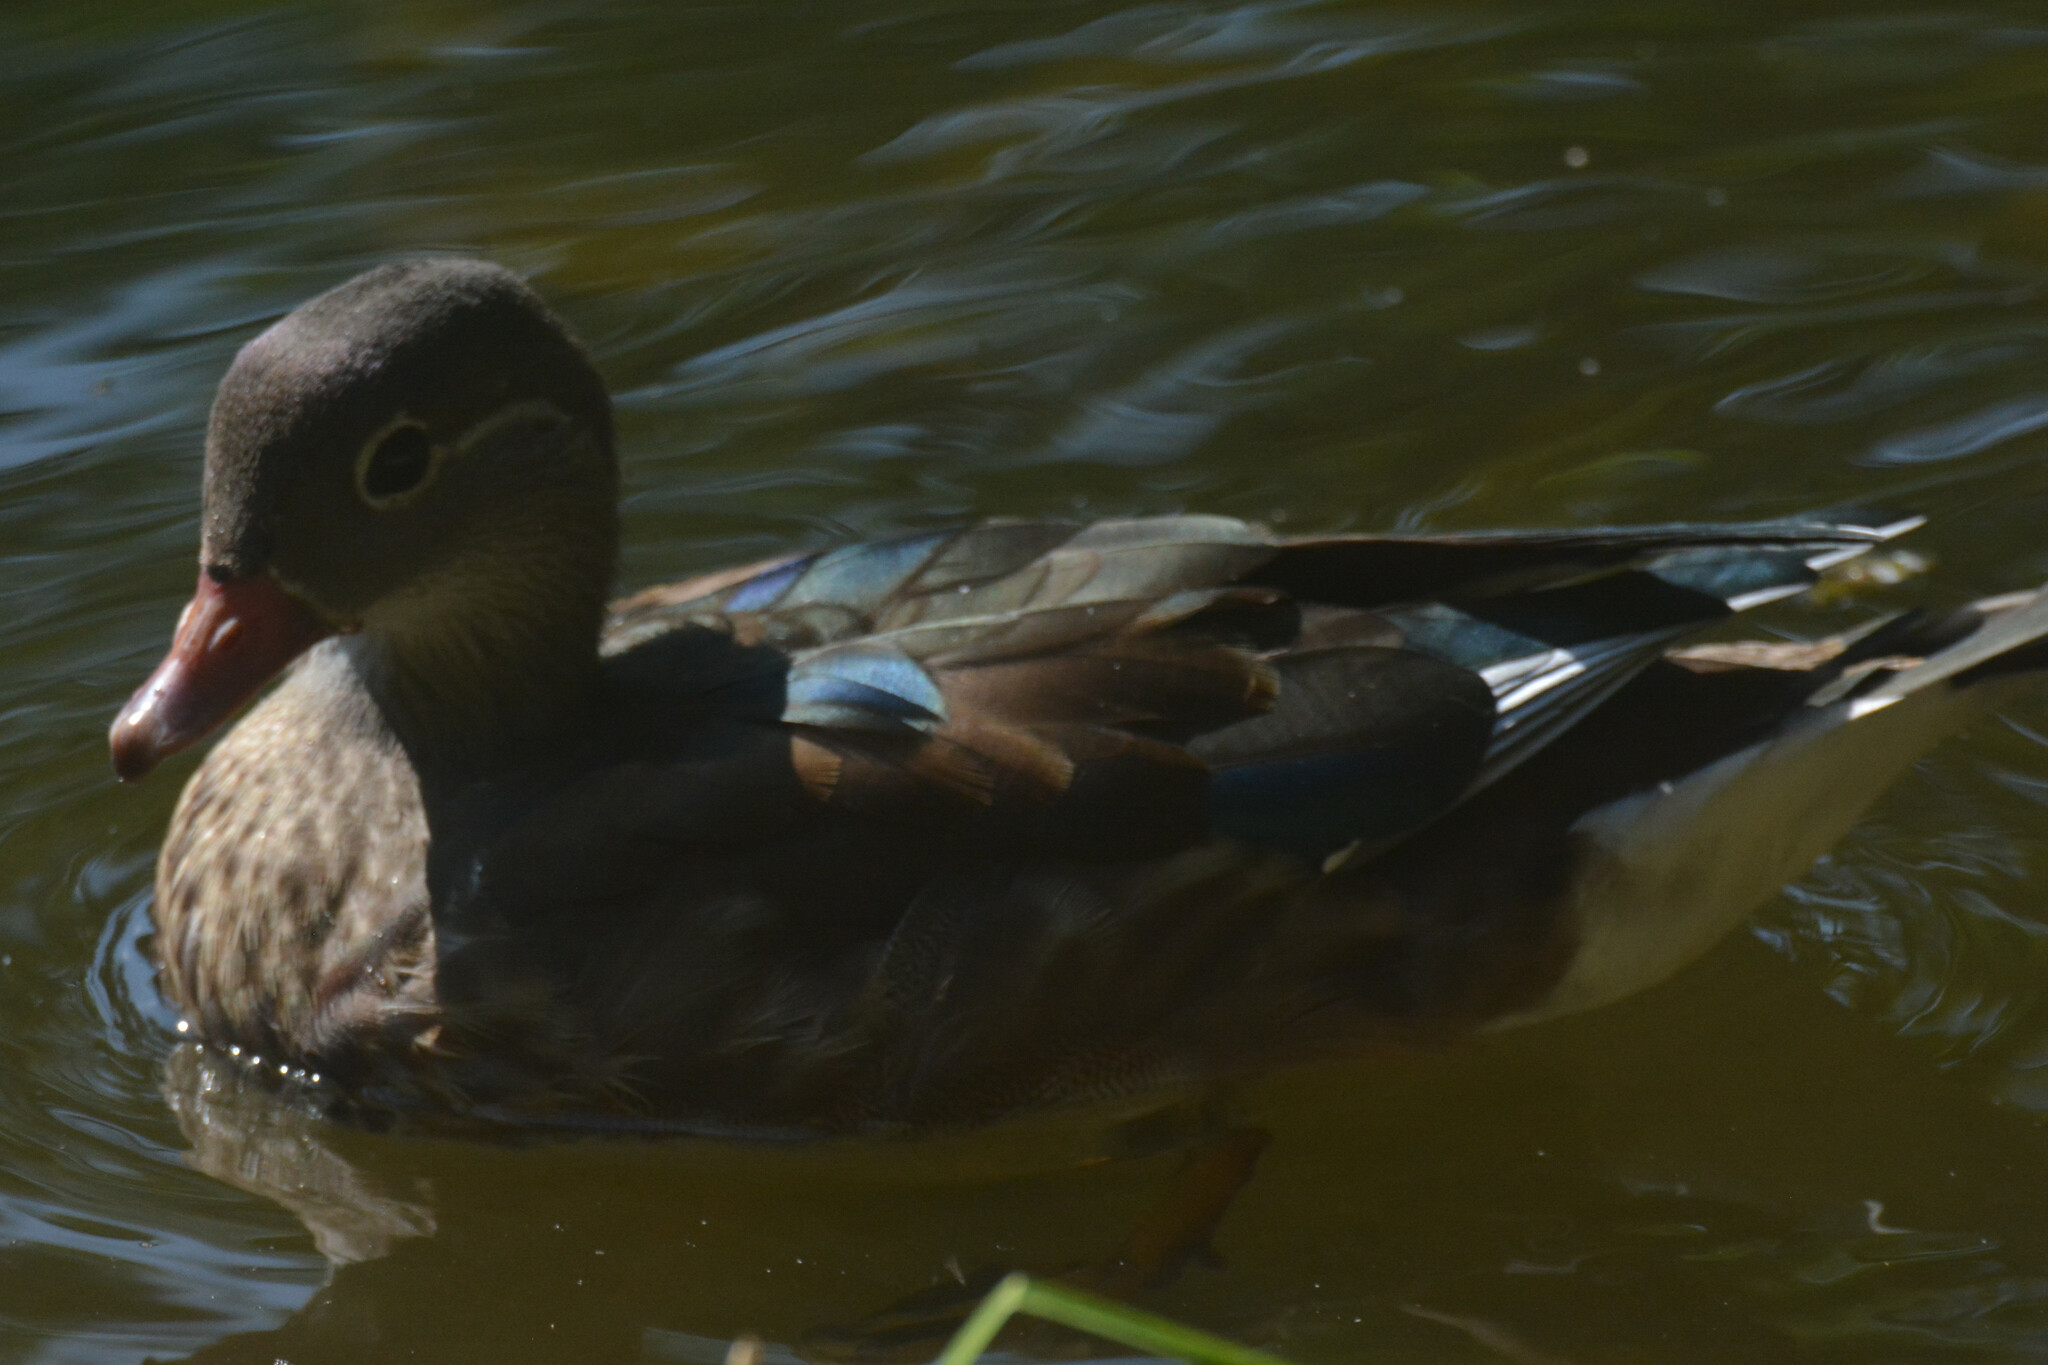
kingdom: Animalia
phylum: Chordata
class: Aves
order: Anseriformes
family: Anatidae
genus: Aix
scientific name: Aix galericulata
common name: Mandarin duck
